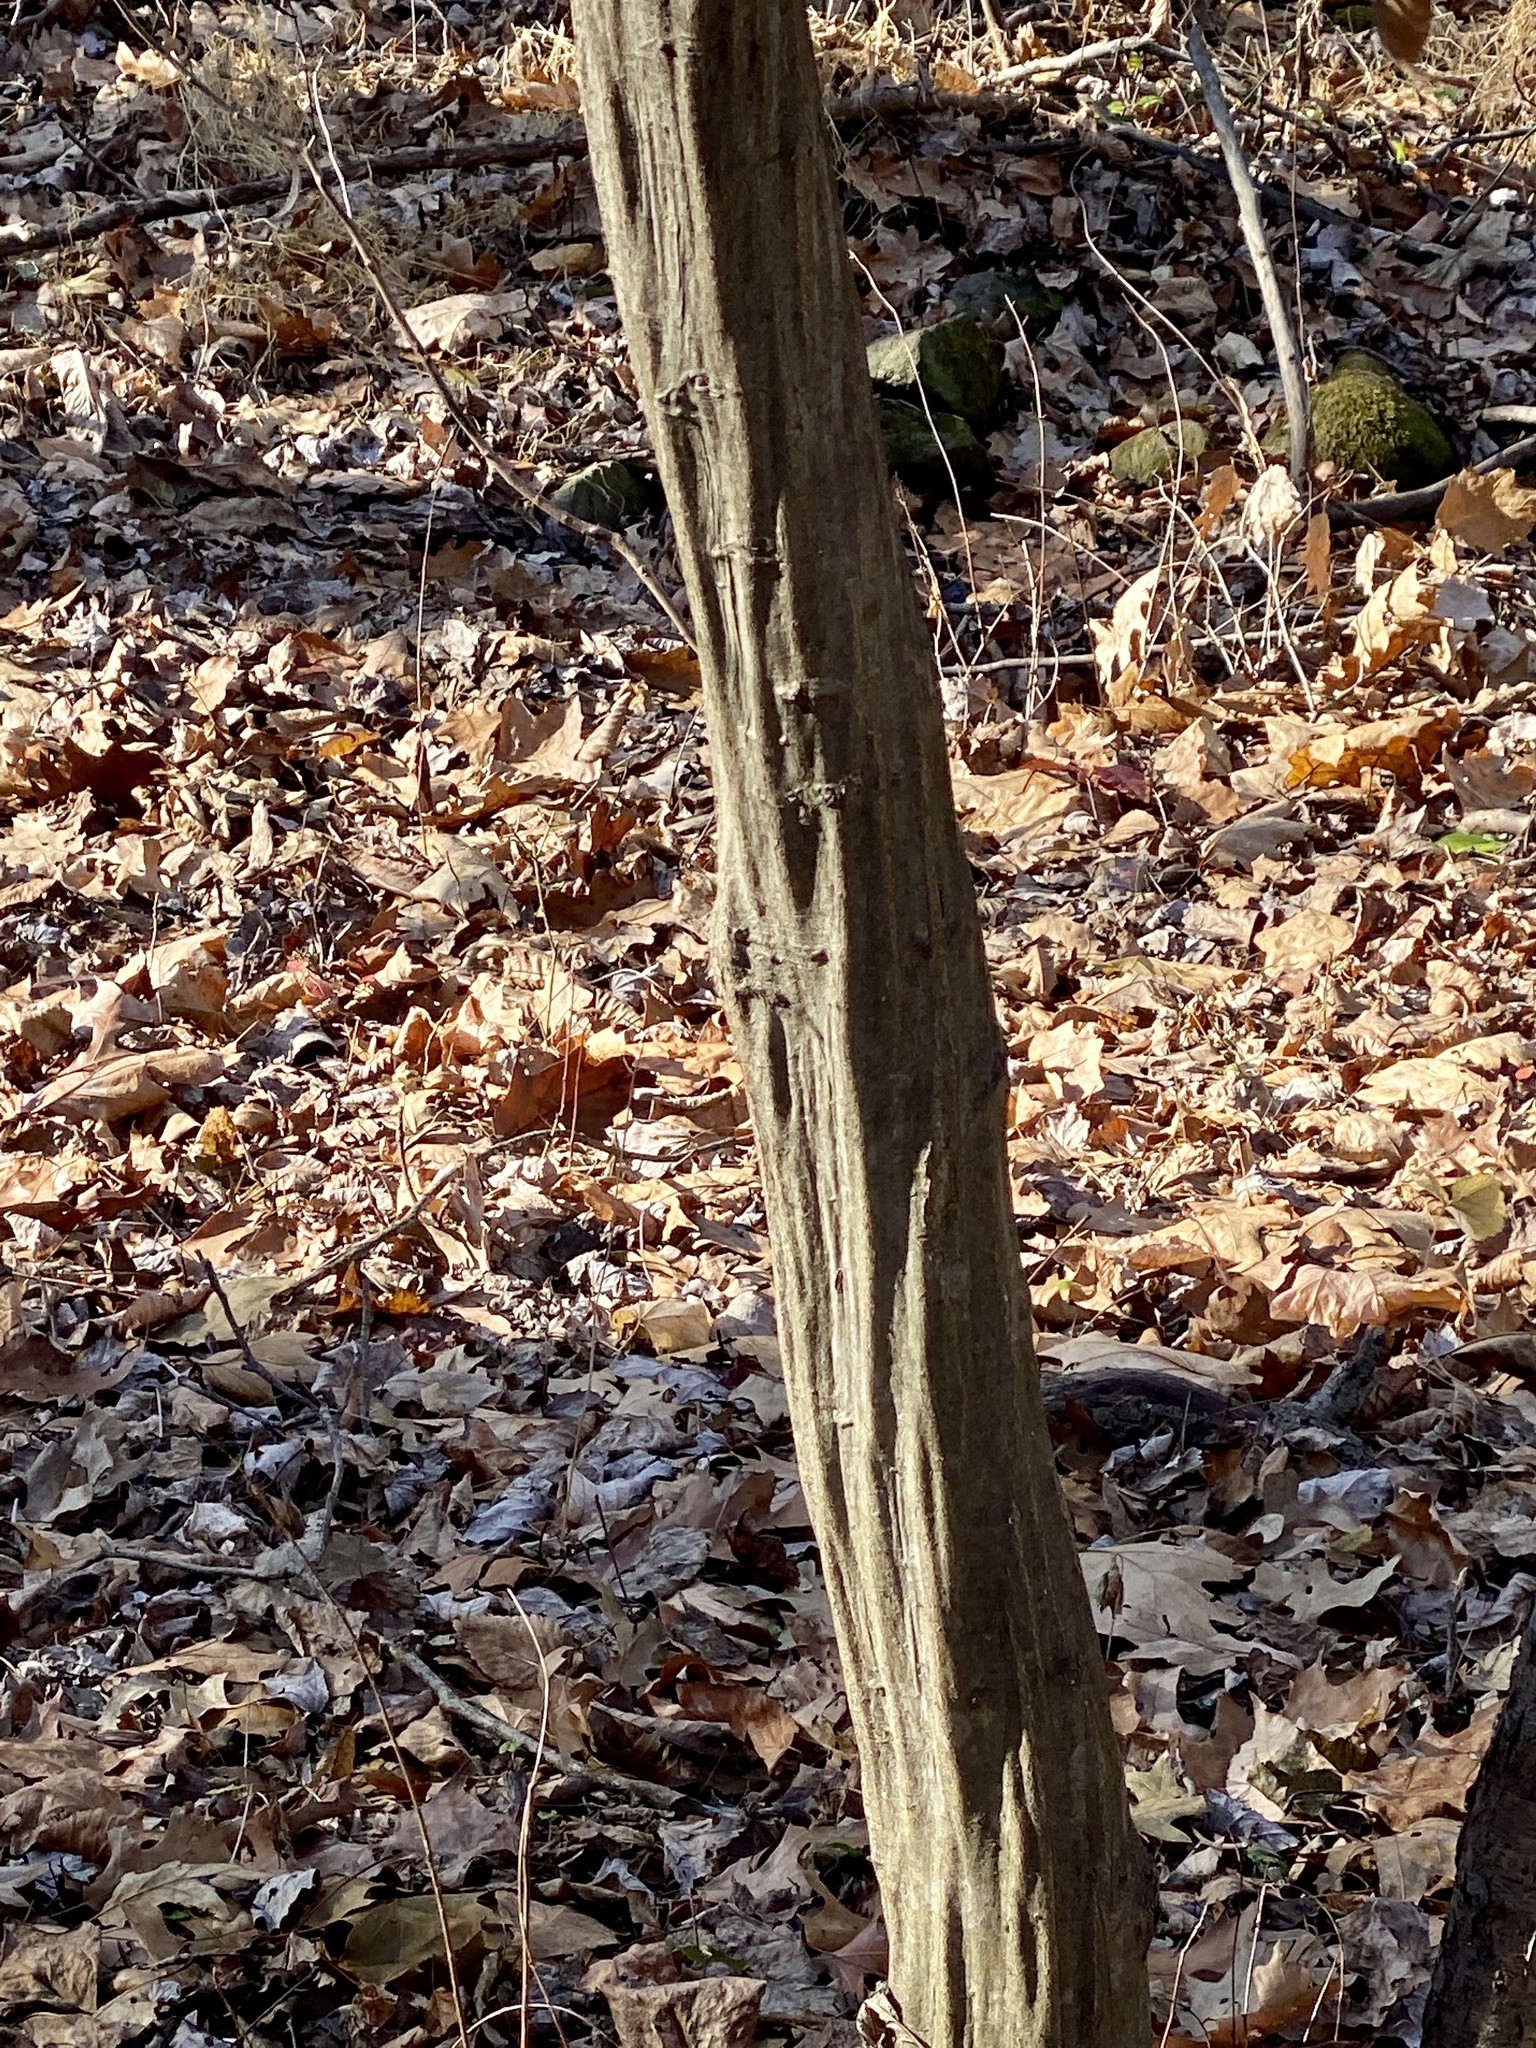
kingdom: Plantae
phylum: Tracheophyta
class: Magnoliopsida
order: Fagales
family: Betulaceae
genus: Carpinus
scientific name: Carpinus caroliniana
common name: American hornbeam
